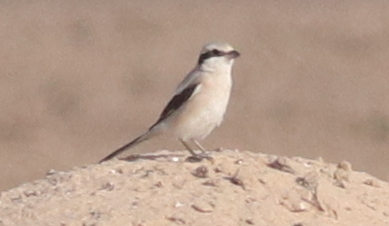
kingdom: Animalia
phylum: Chordata
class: Aves
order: Passeriformes
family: Laniidae
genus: Lanius
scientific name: Lanius excubitor
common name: Great grey shrike
